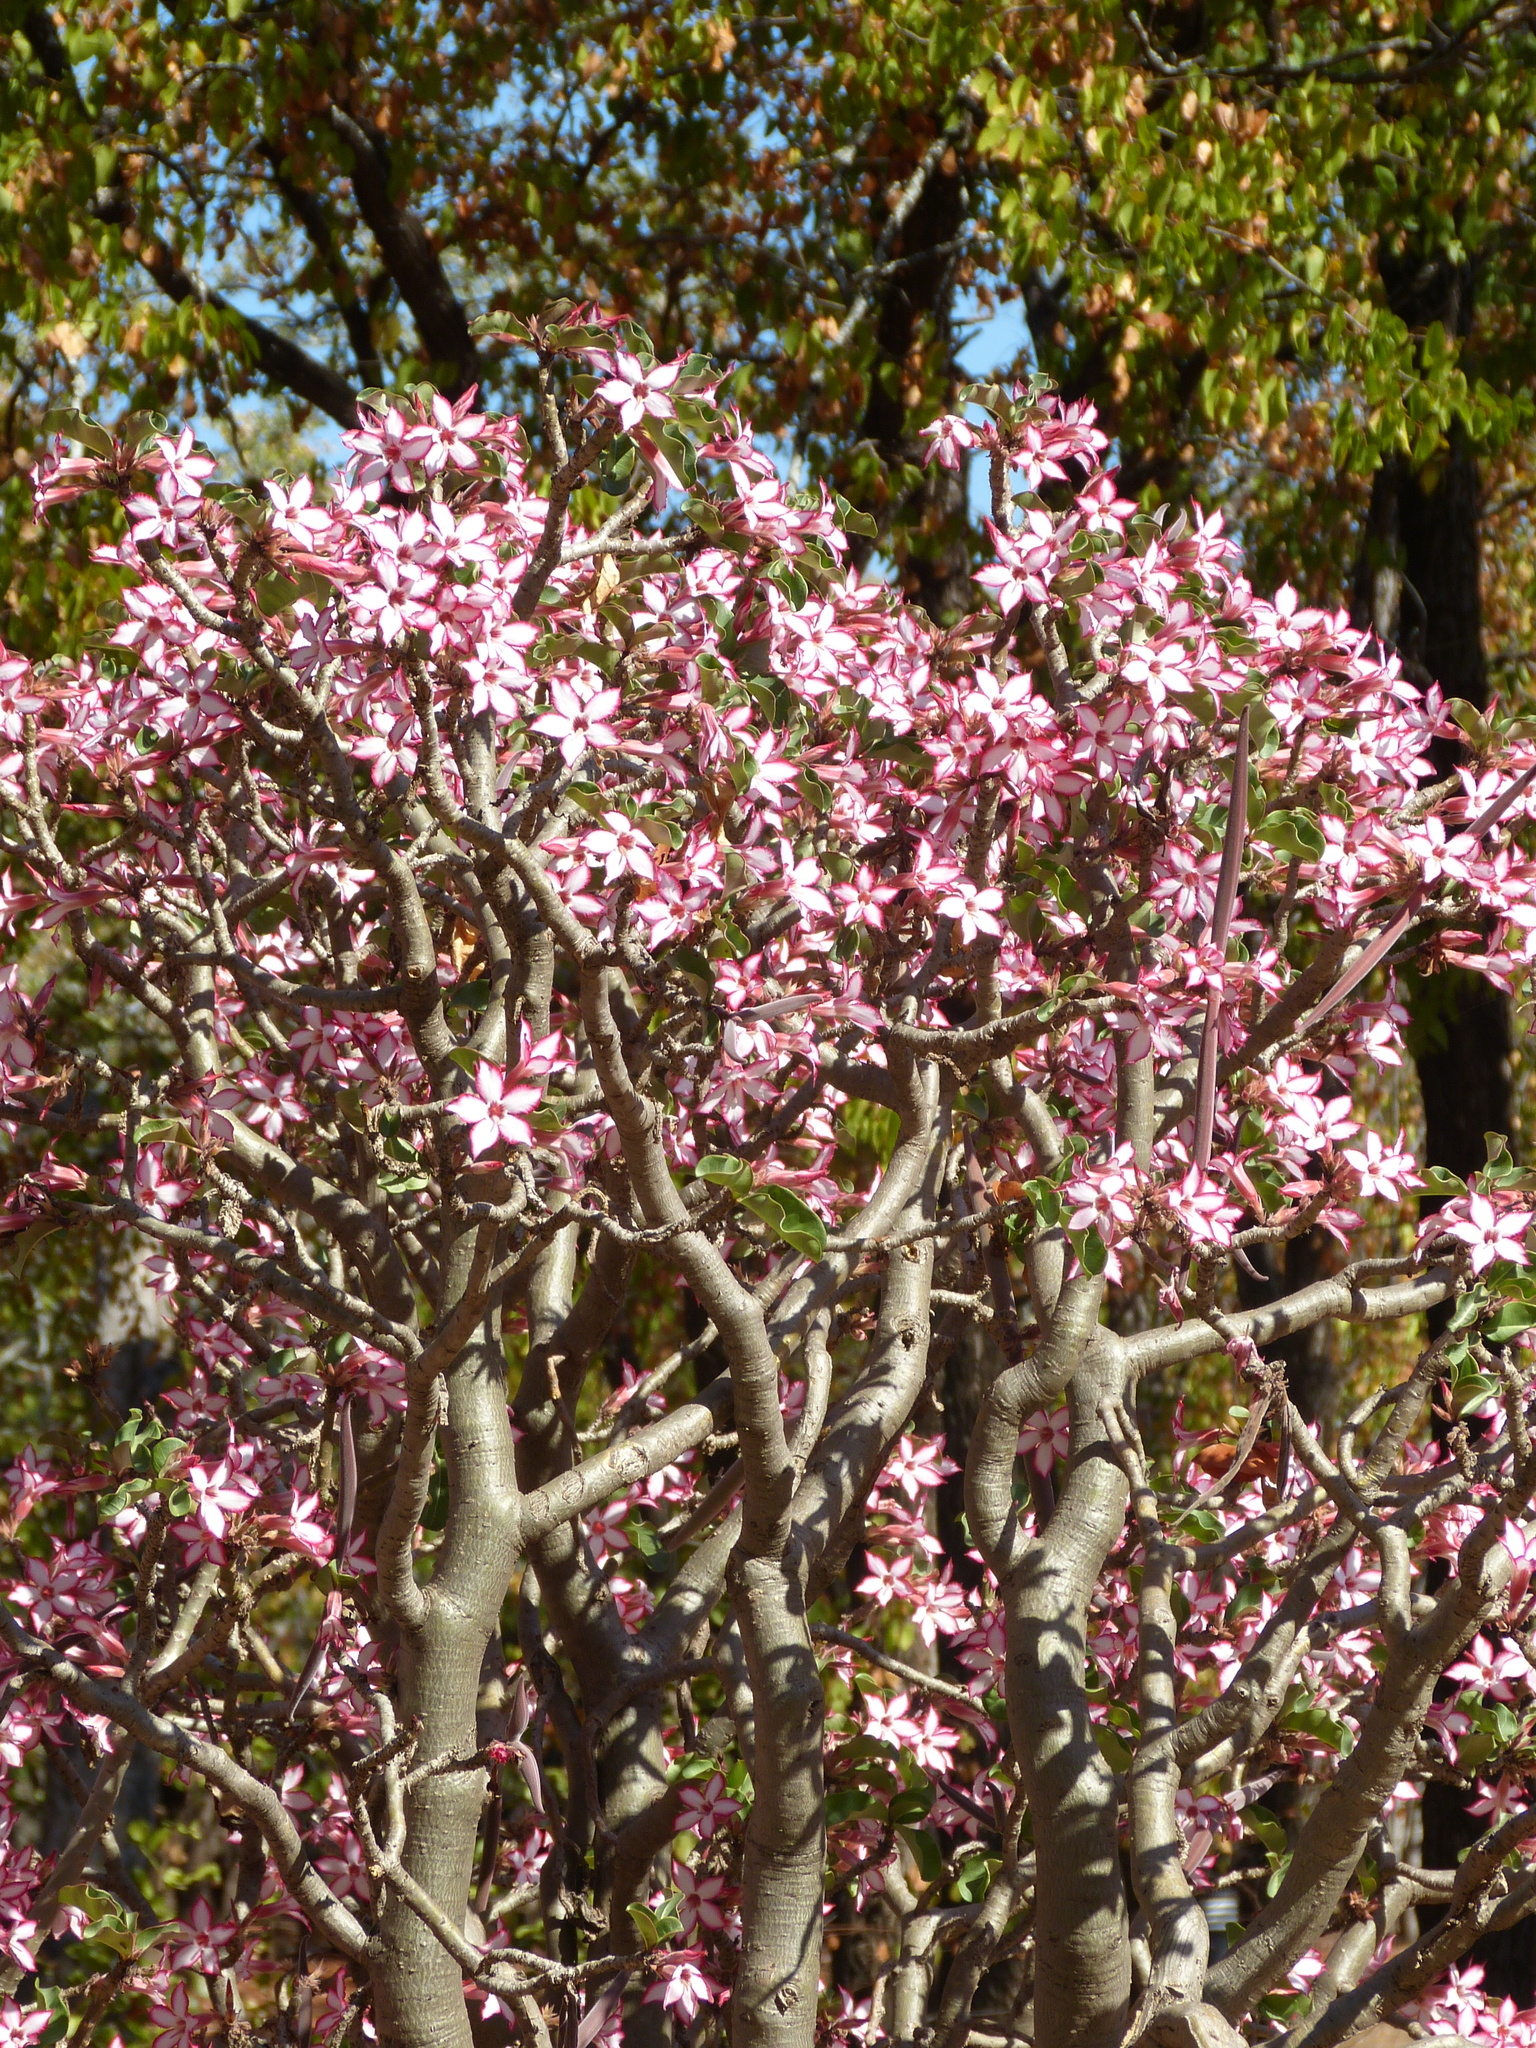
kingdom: Plantae
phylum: Tracheophyta
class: Magnoliopsida
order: Gentianales
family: Apocynaceae
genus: Adenium
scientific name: Adenium obesum
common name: Desert-rose
